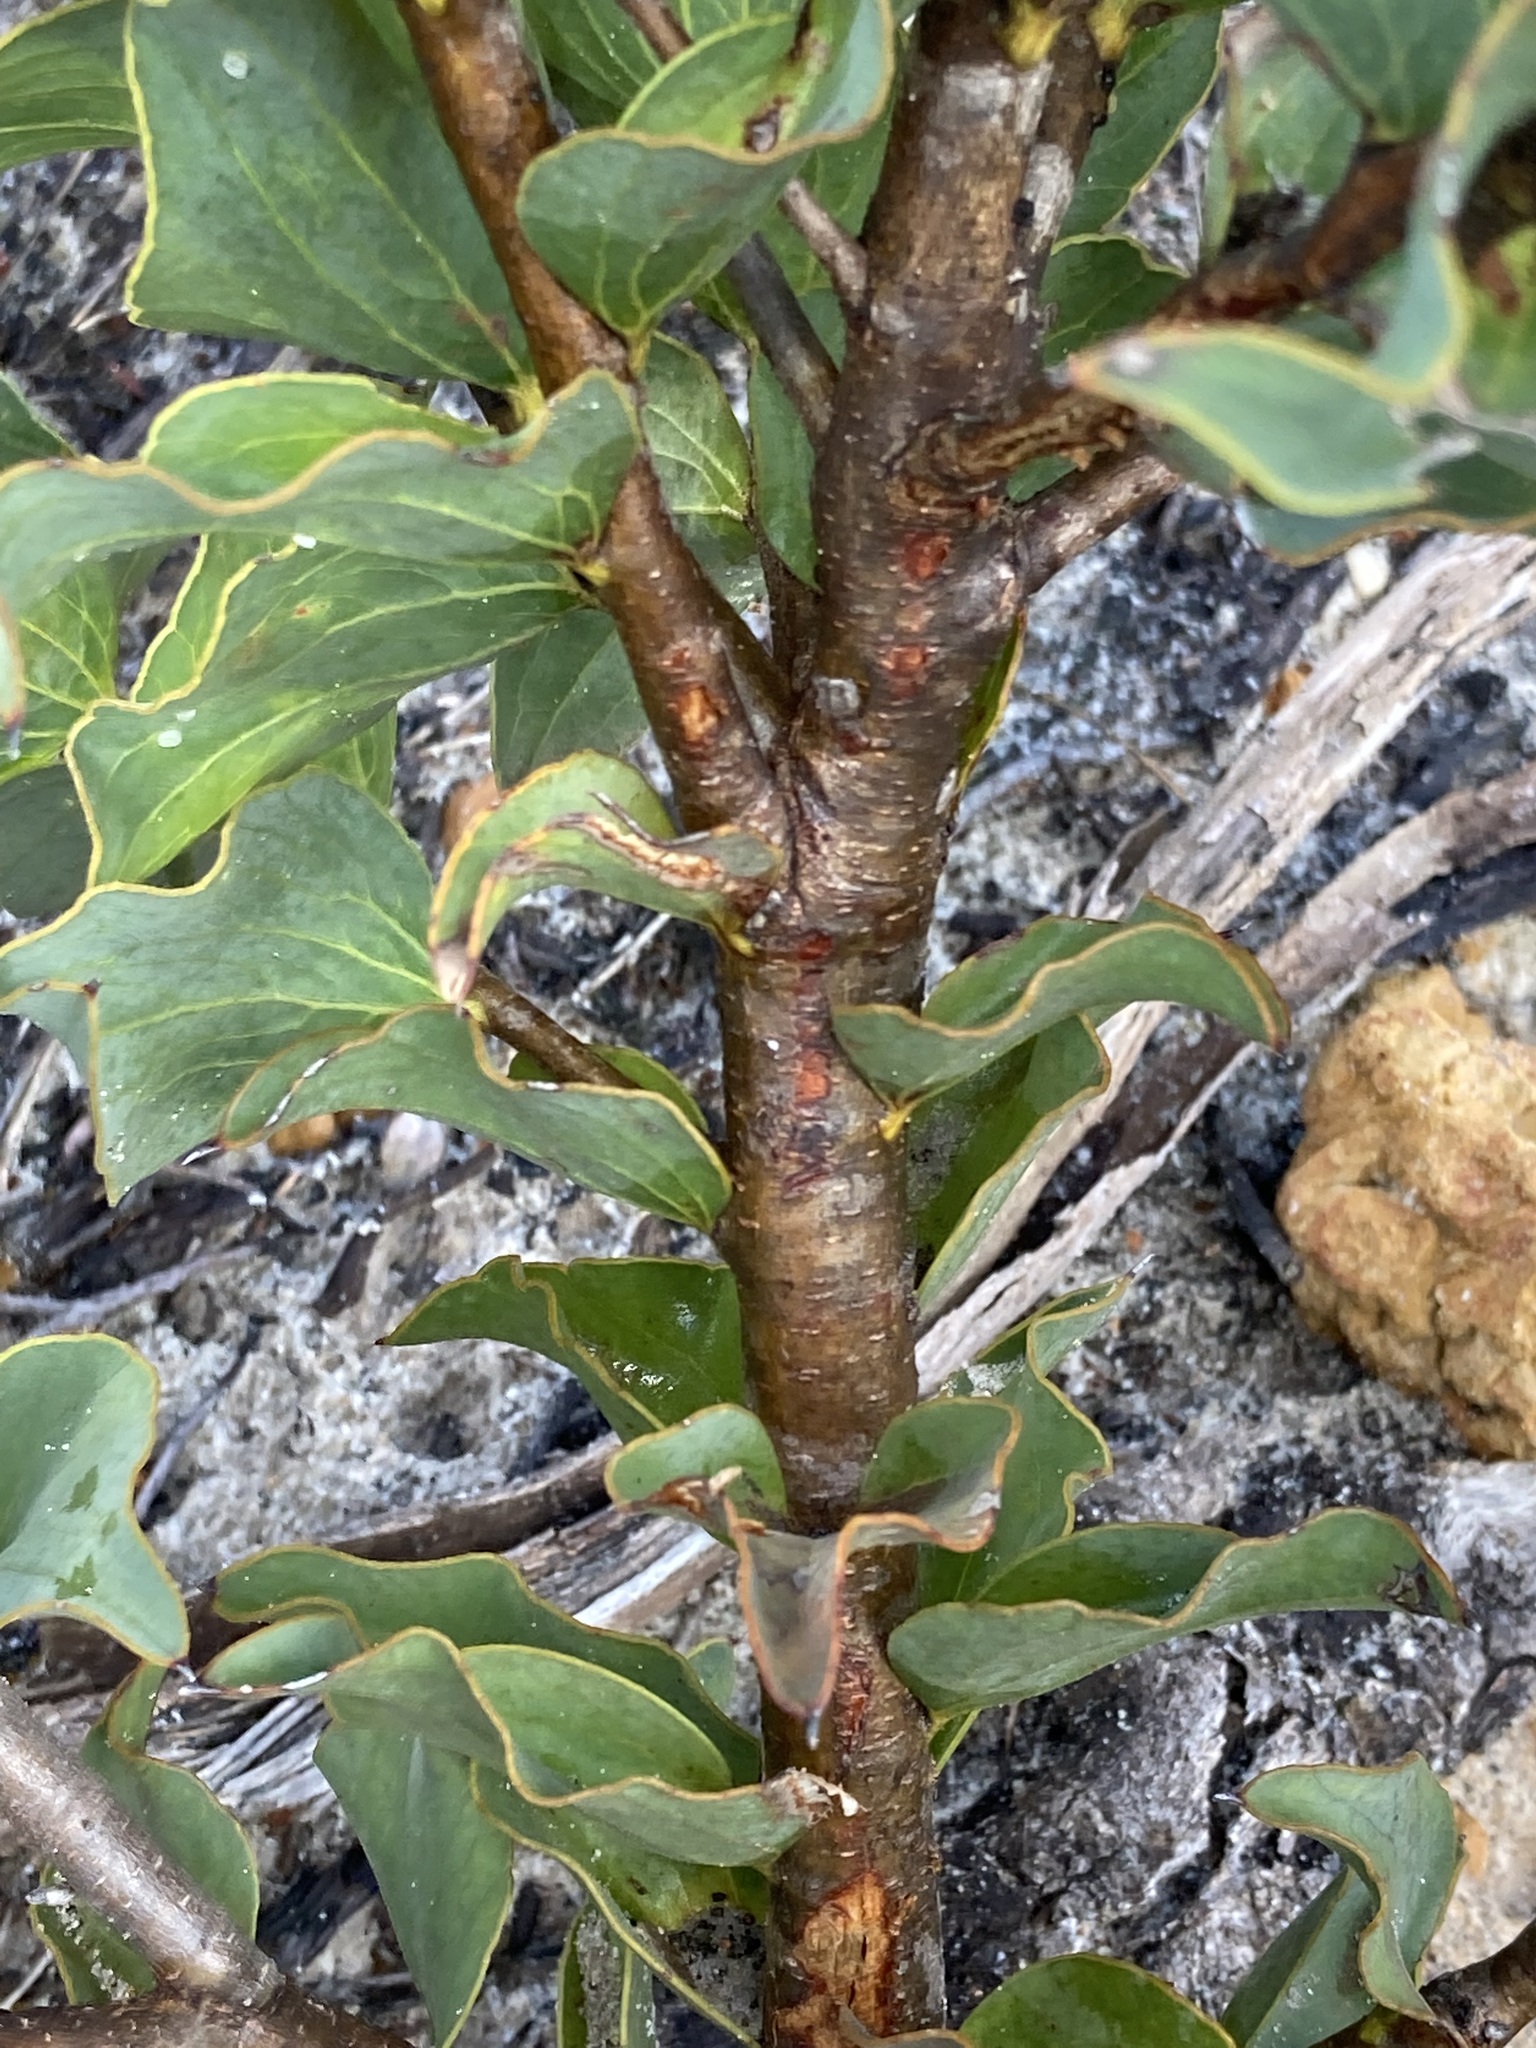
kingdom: Plantae
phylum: Tracheophyta
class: Magnoliopsida
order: Proteales
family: Proteaceae
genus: Hakea
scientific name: Hakea smilacifolia
